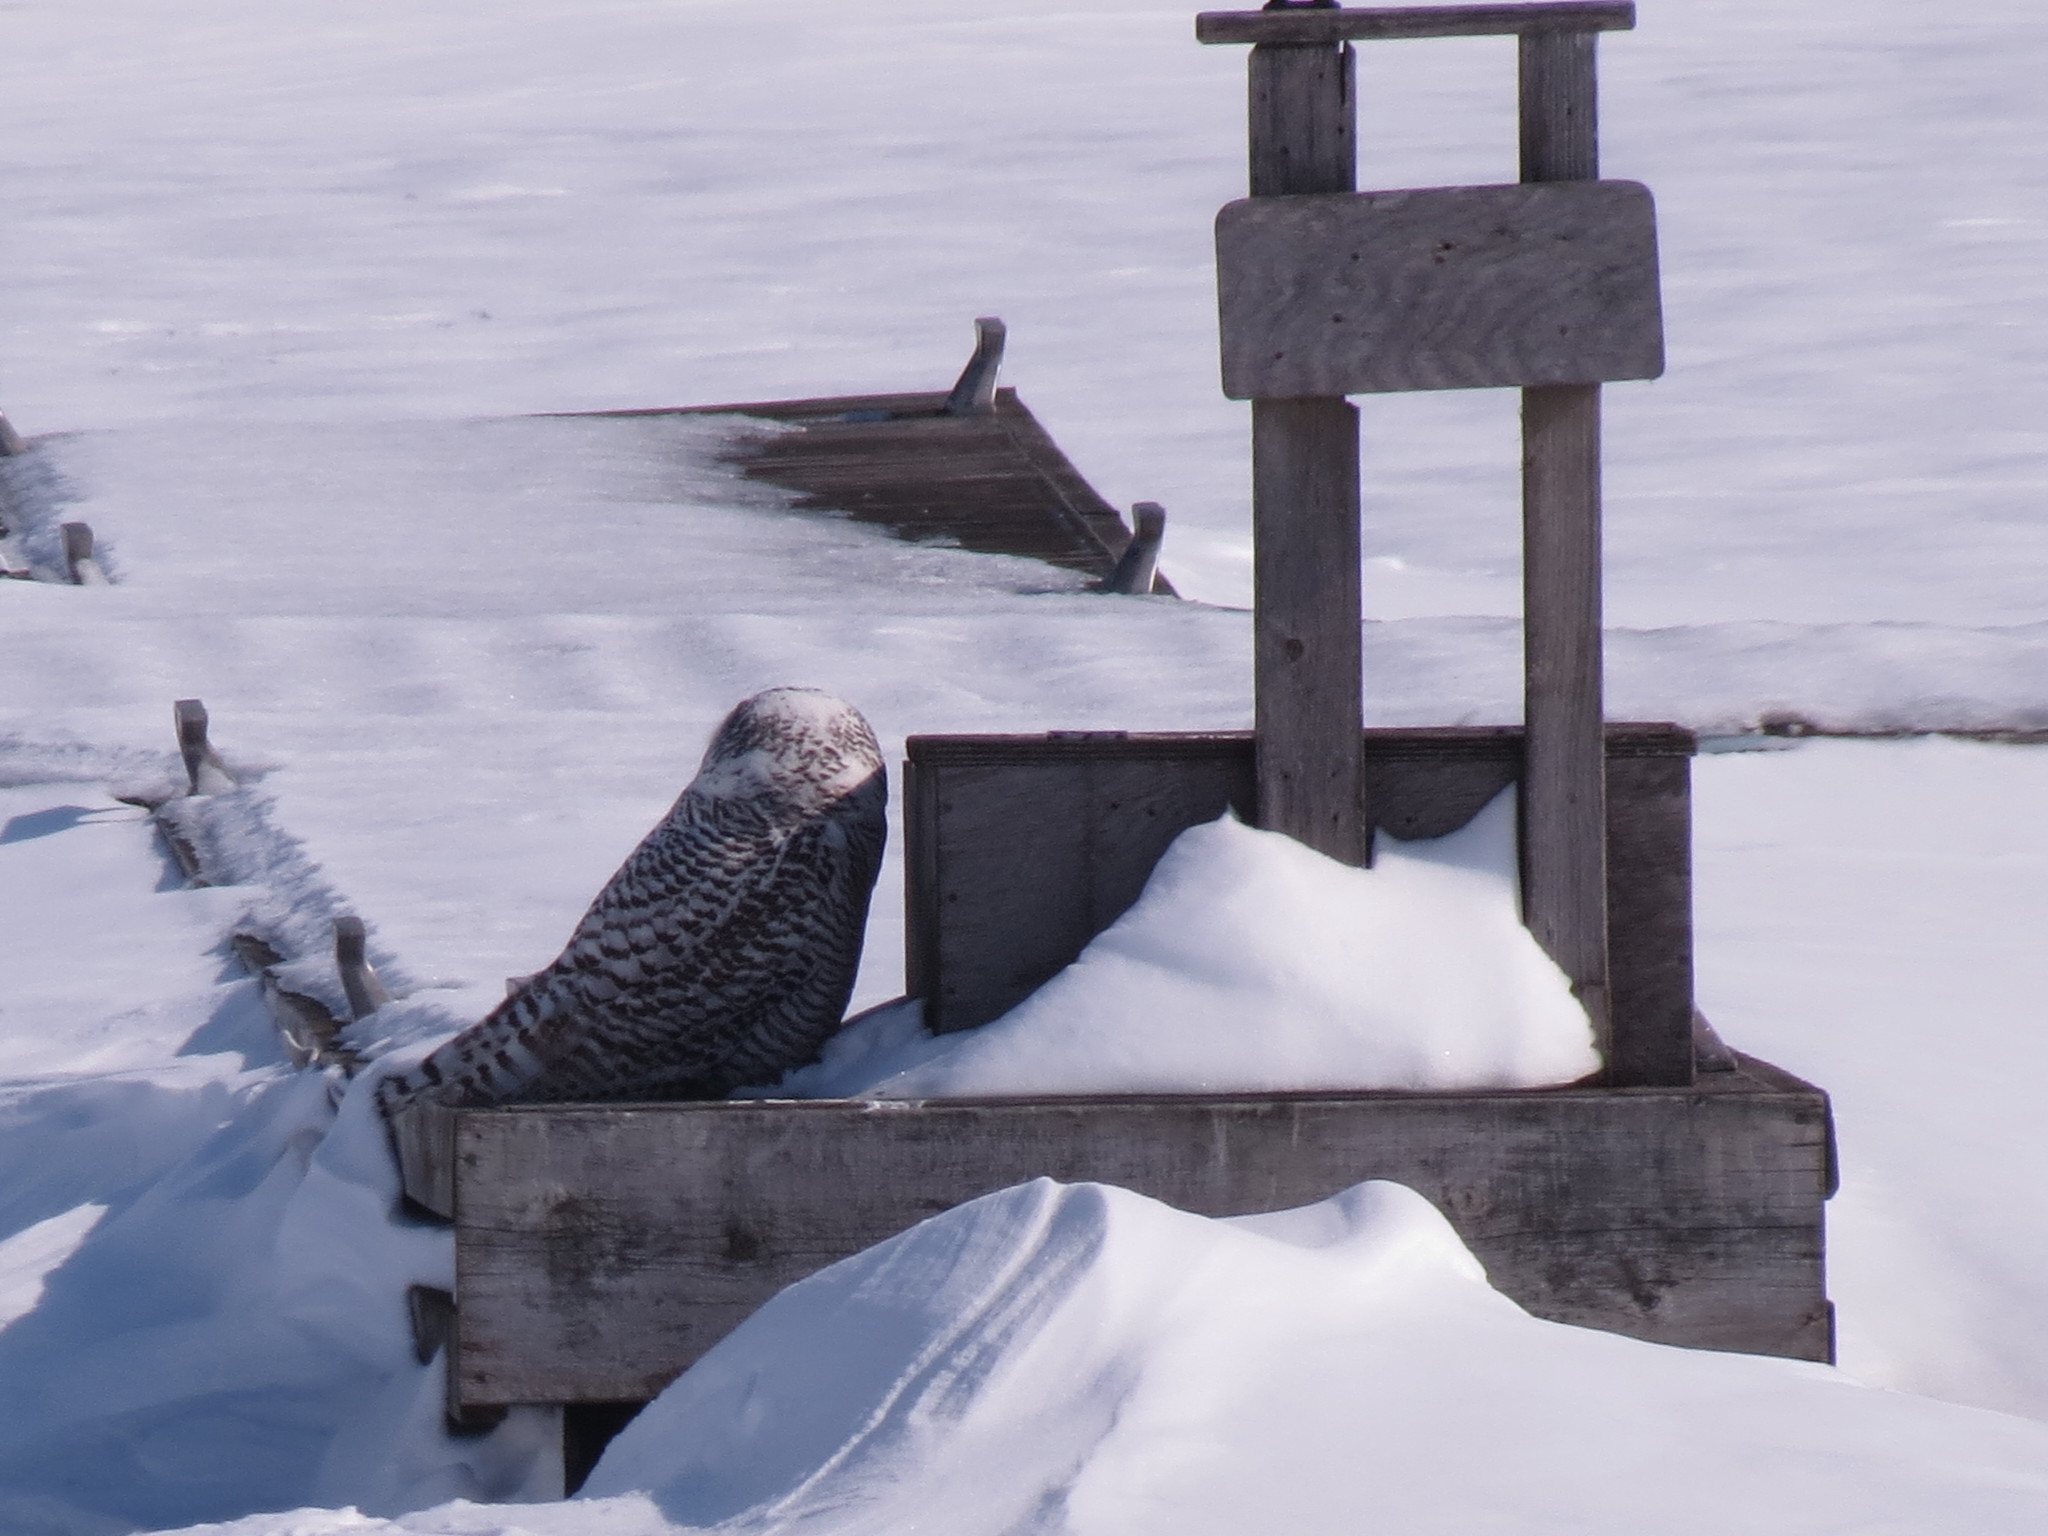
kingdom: Animalia
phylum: Chordata
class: Aves
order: Strigiformes
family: Strigidae
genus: Bubo
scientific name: Bubo scandiacus
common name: Snowy owl
